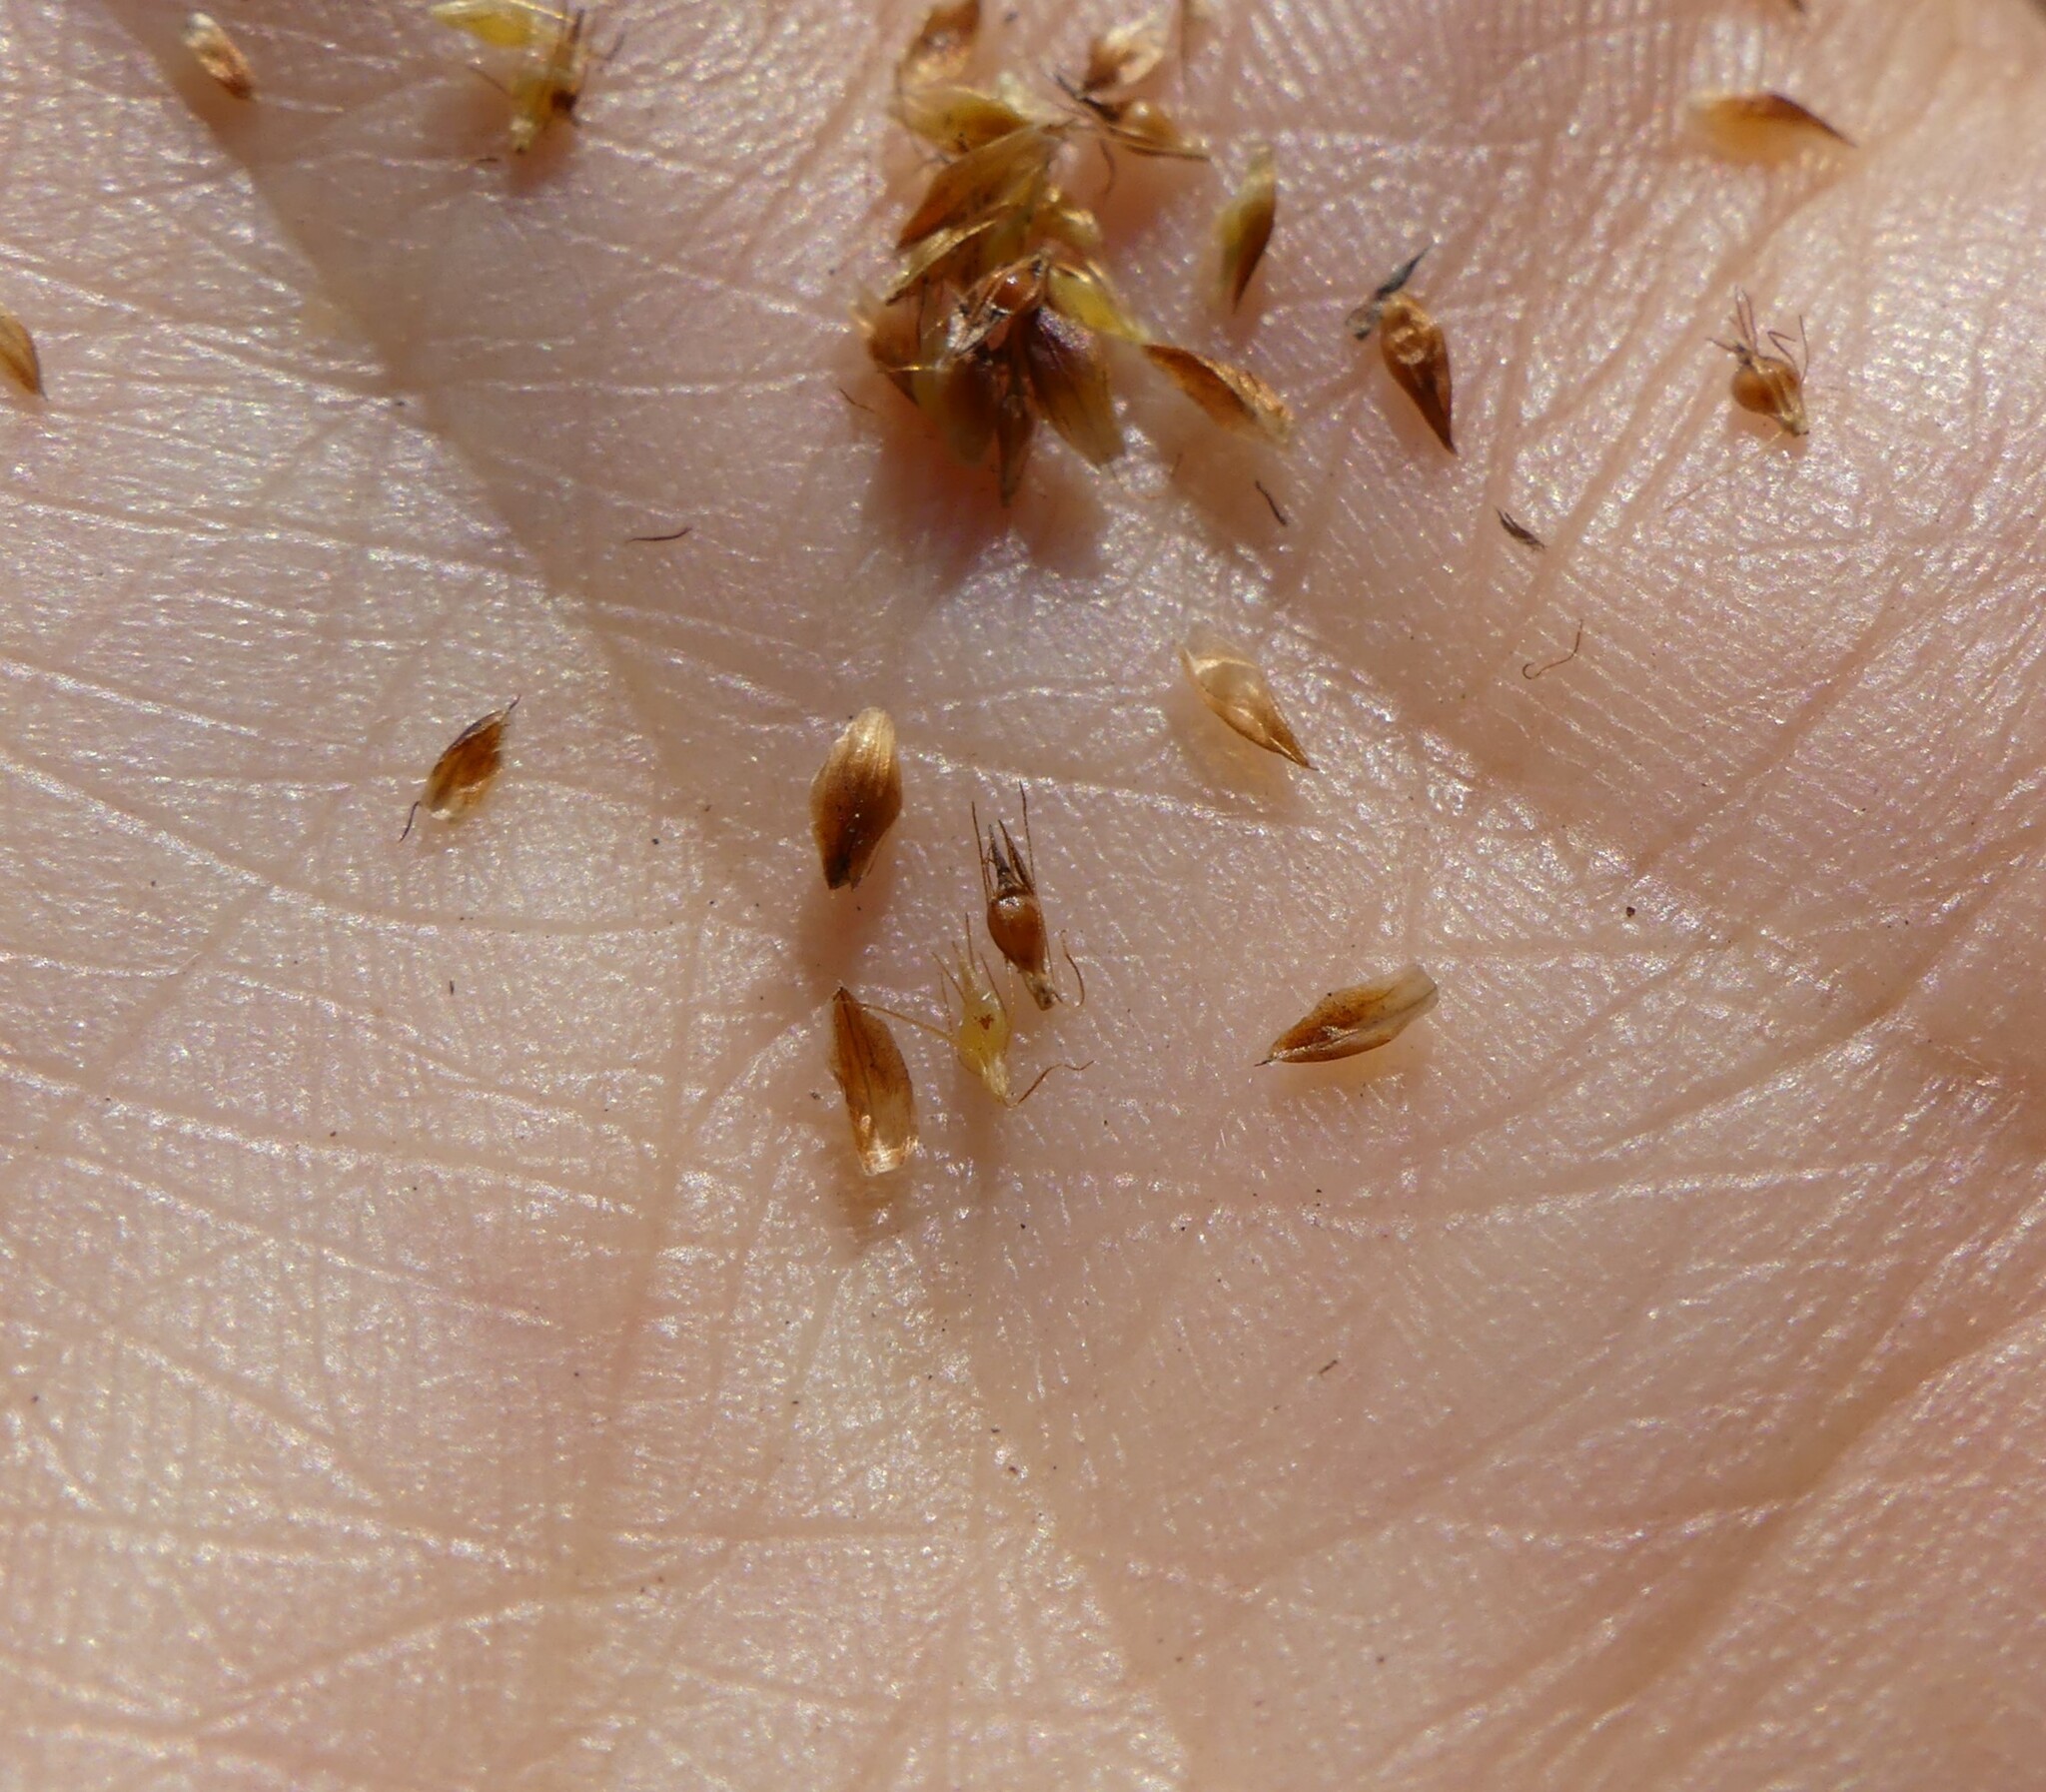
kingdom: Plantae
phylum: Tracheophyta
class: Liliopsida
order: Poales
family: Cyperaceae
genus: Rhynchospora
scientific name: Rhynchospora capitellata
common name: Brownish beaksedge
